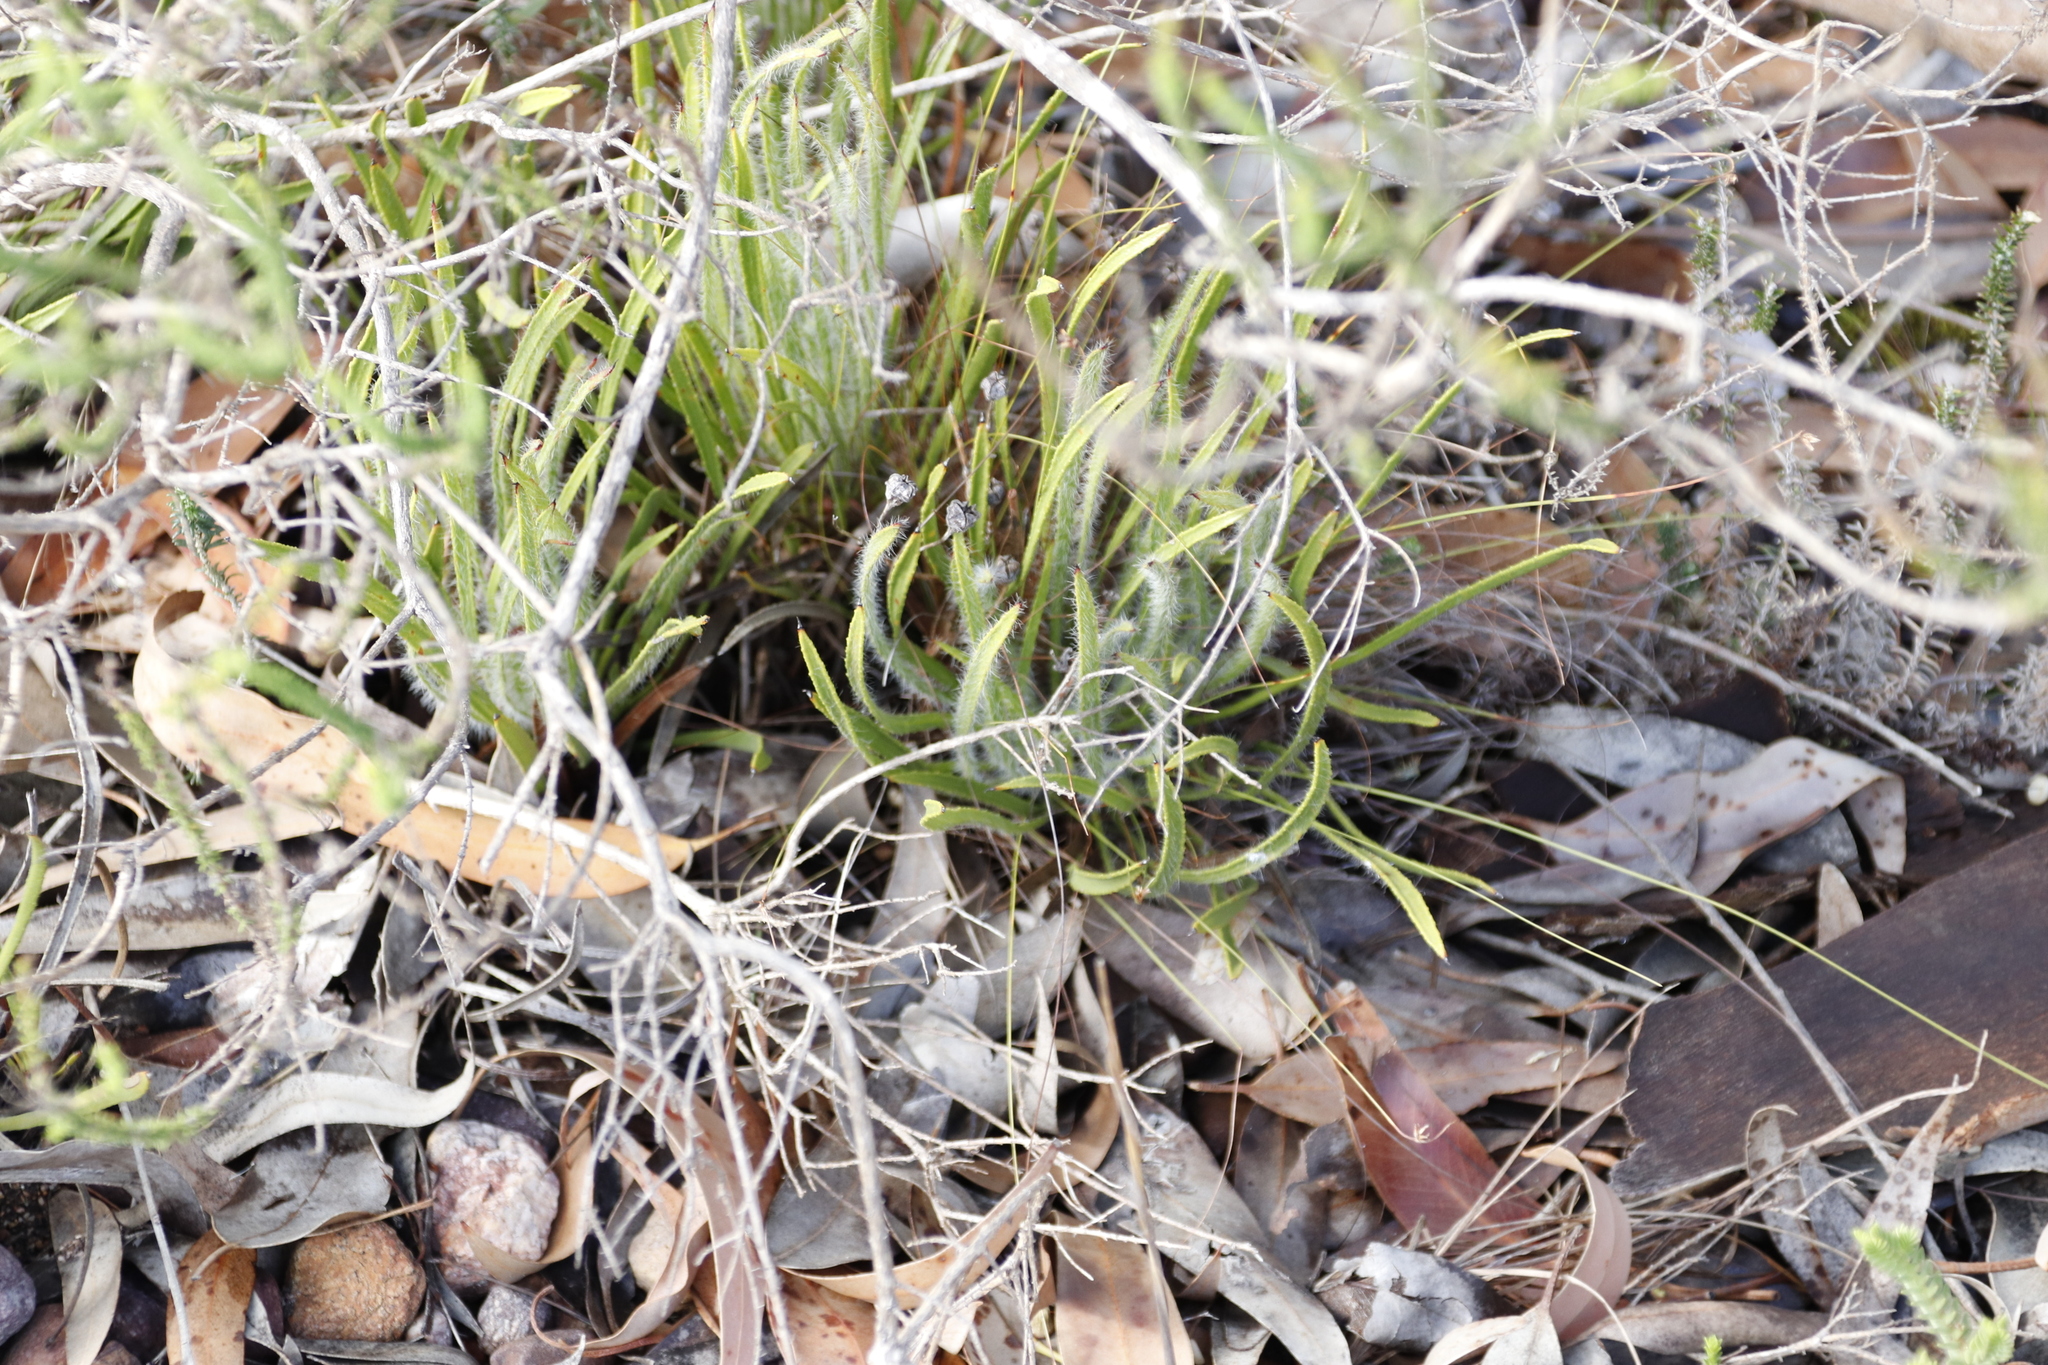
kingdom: Plantae
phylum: Tracheophyta
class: Magnoliopsida
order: Proteales
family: Proteaceae
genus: Protea
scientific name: Protea denticulata
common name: Tooth-leaf sugarbush
